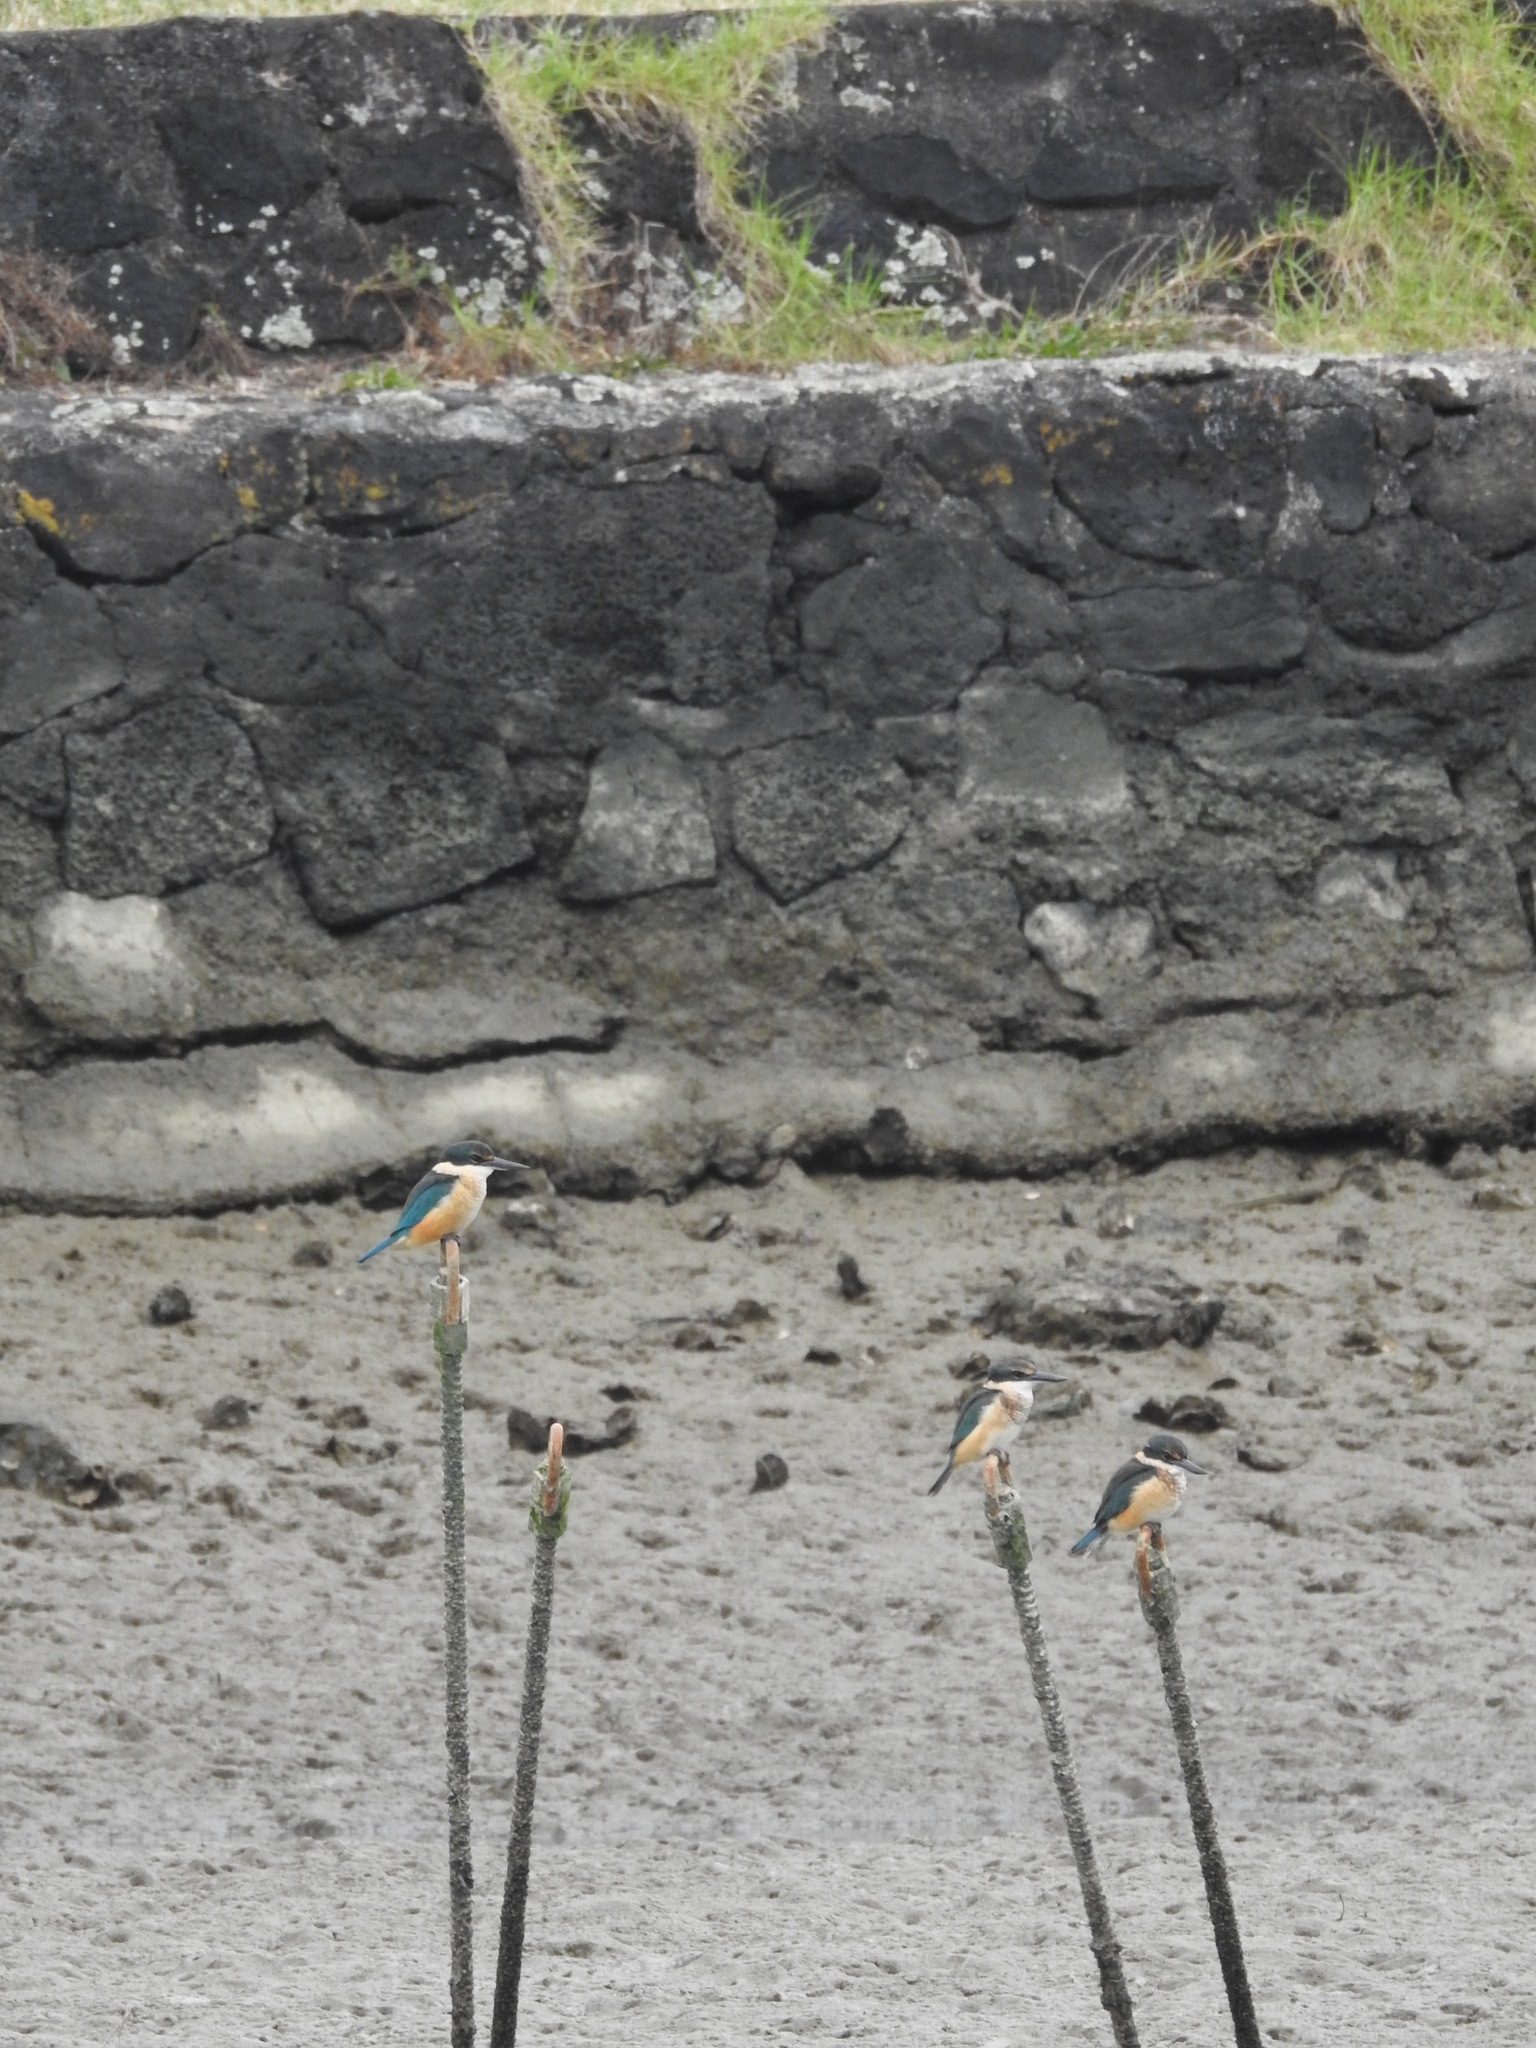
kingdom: Animalia
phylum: Chordata
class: Aves
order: Coraciiformes
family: Alcedinidae
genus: Todiramphus
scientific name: Todiramphus sanctus
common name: Sacred kingfisher
